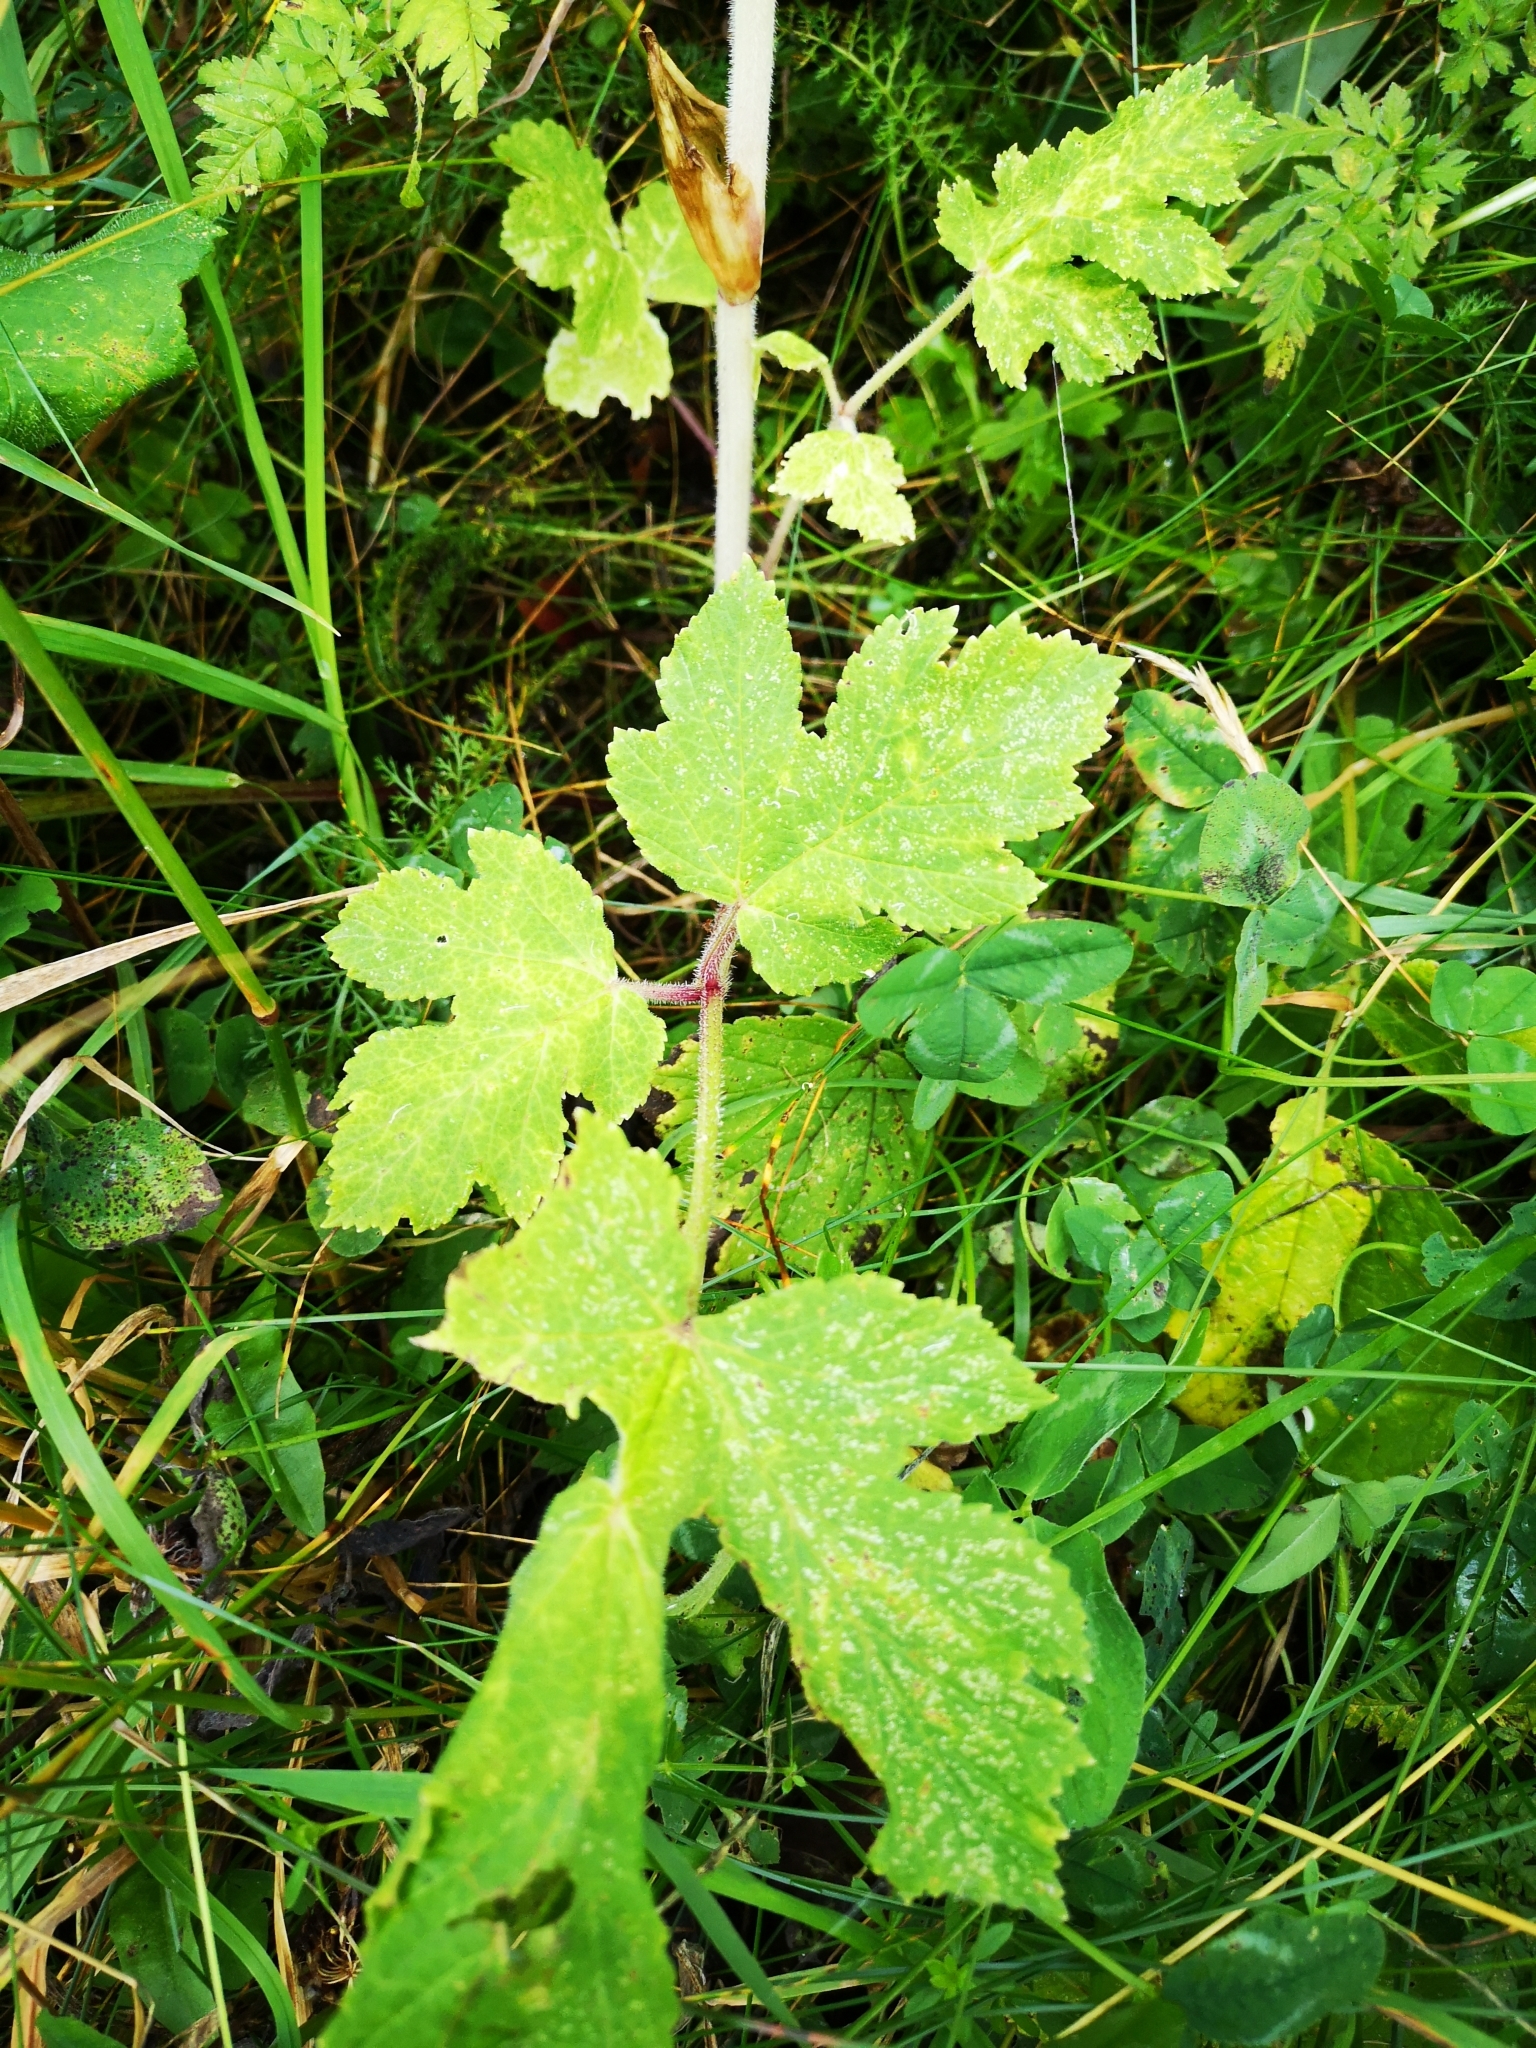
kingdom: Plantae
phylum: Tracheophyta
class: Magnoliopsida
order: Apiales
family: Apiaceae
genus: Heracleum
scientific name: Heracleum sphondylium
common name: Hogweed
